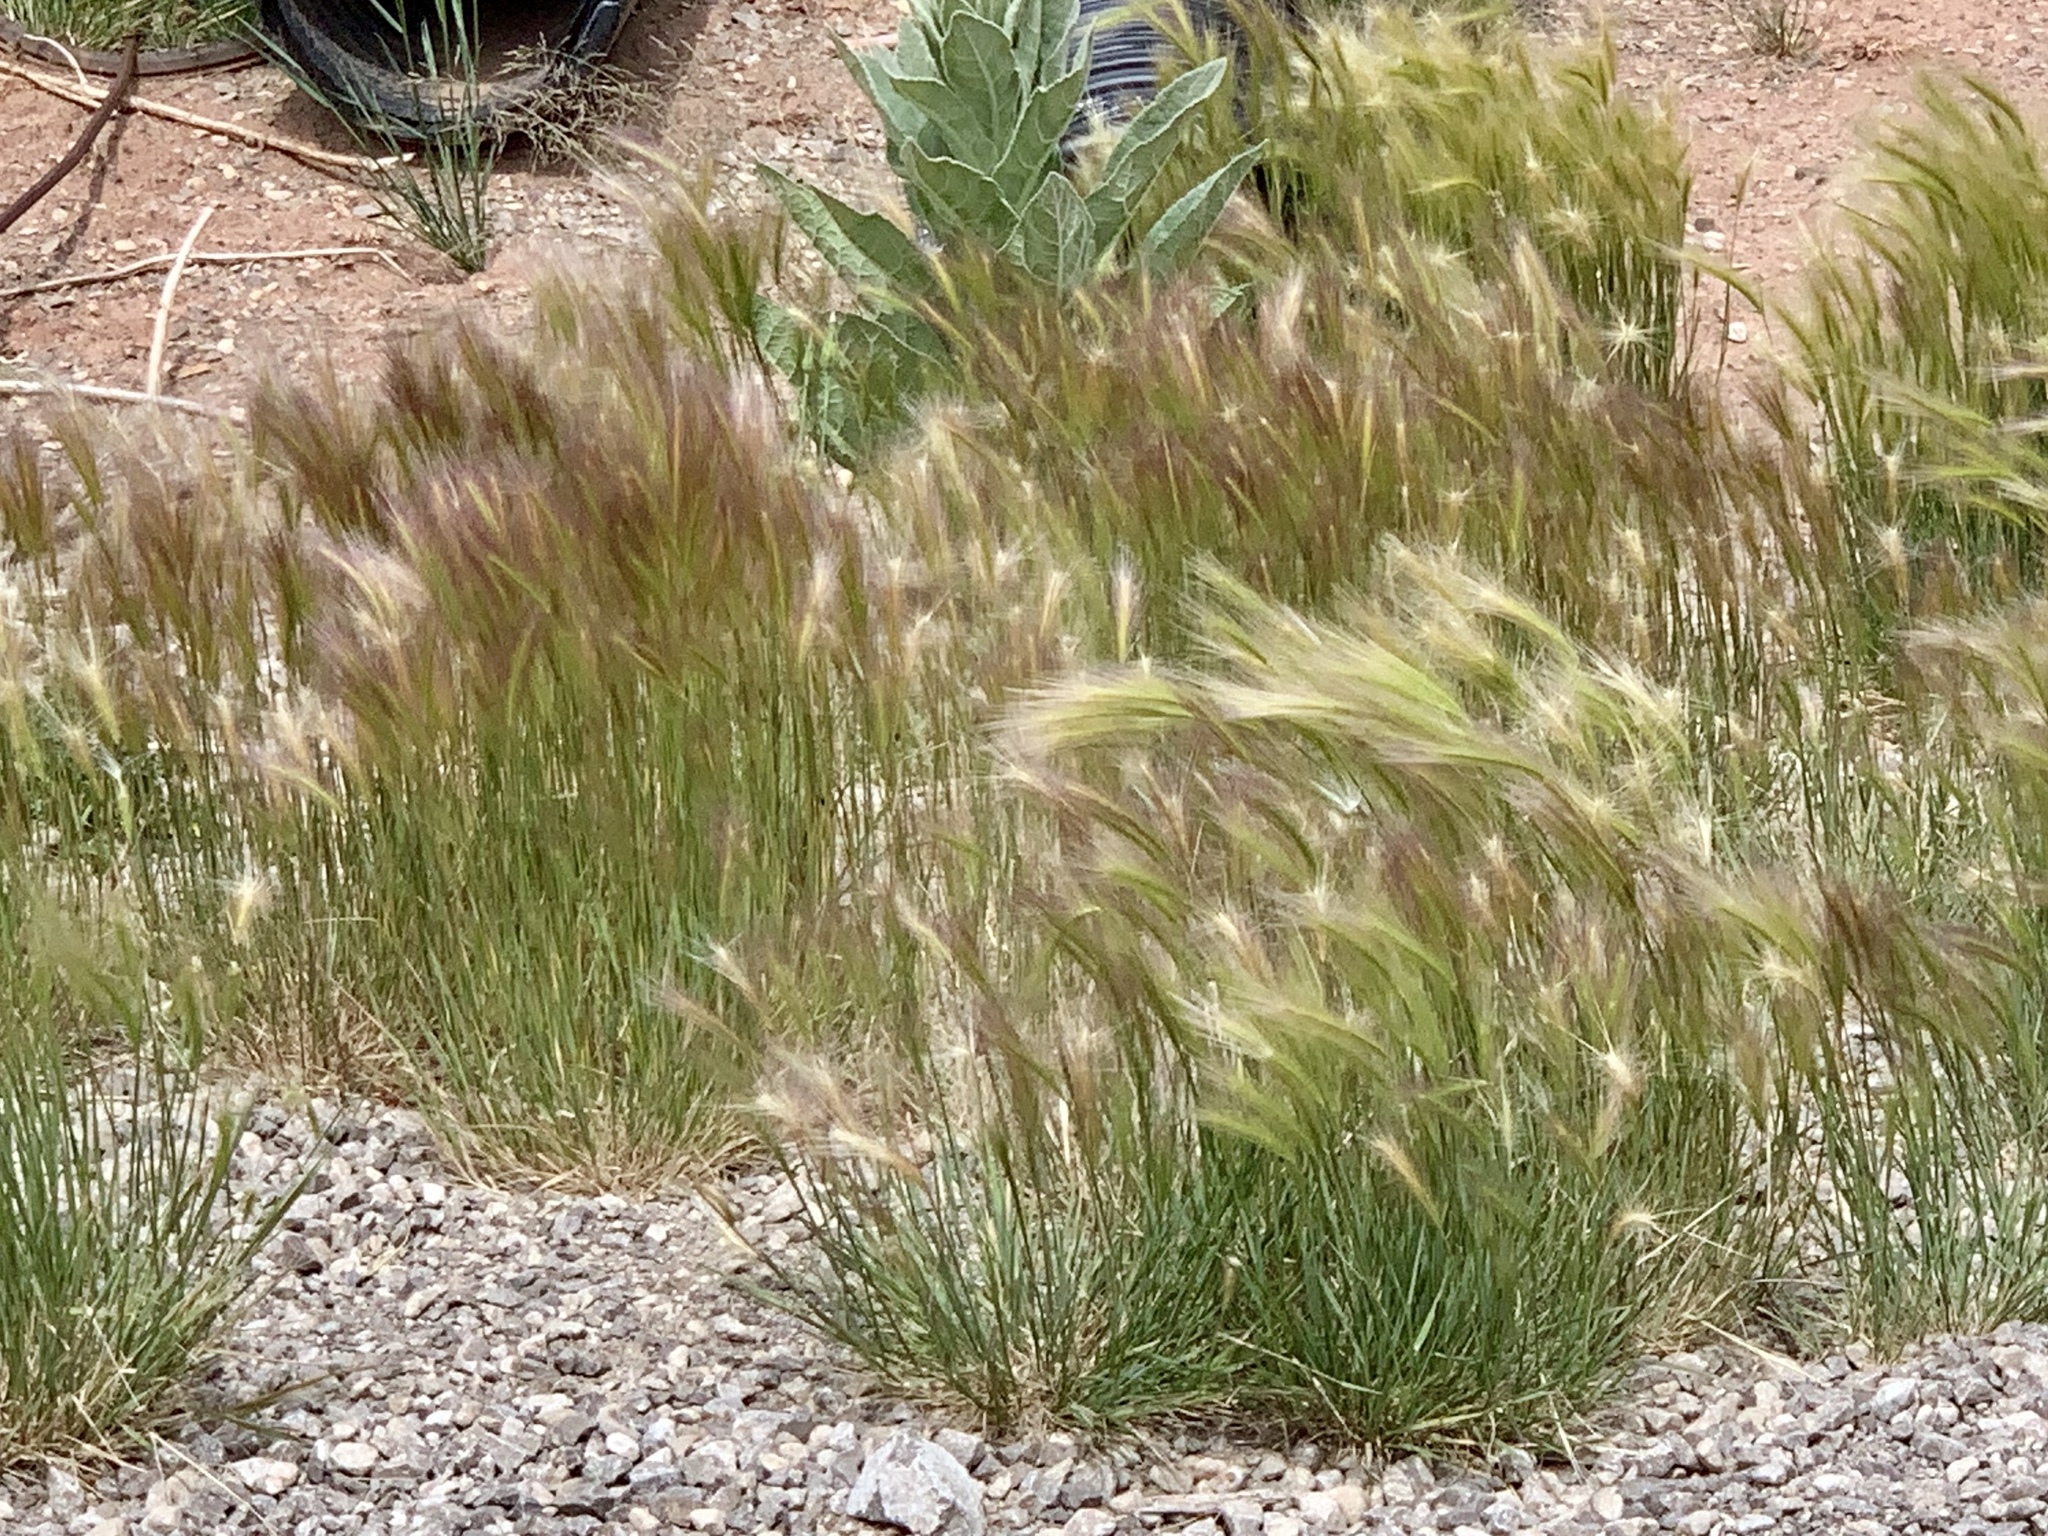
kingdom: Plantae
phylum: Tracheophyta
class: Liliopsida
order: Poales
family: Poaceae
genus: Hordeum
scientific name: Hordeum jubatum
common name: Foxtail barley
